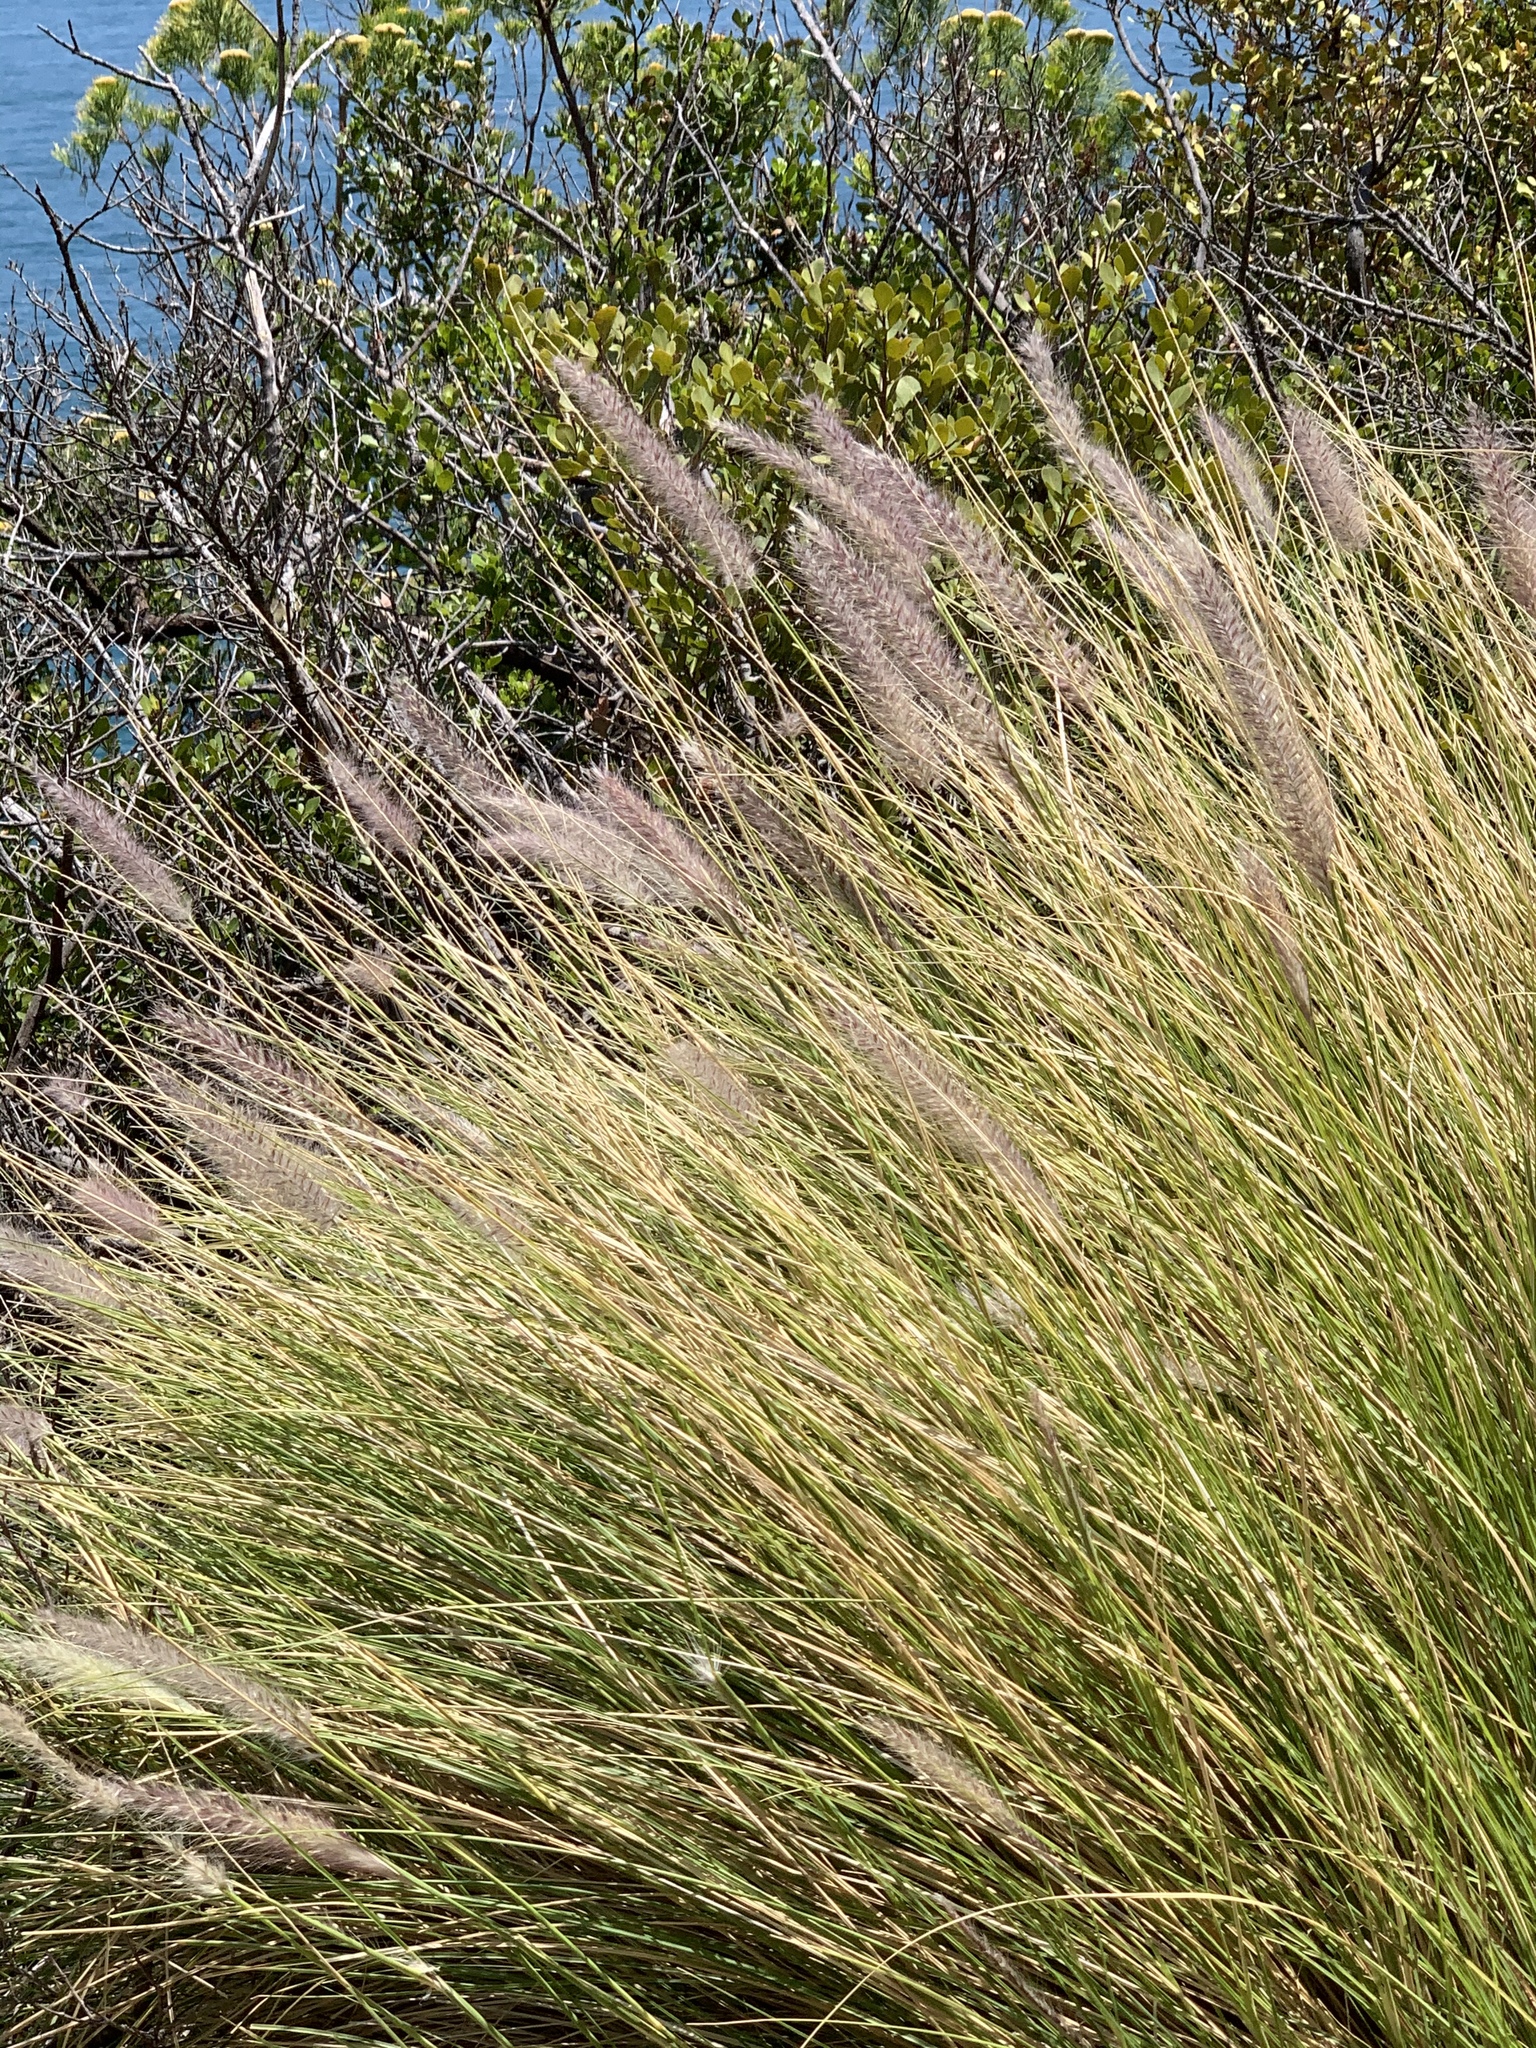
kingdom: Plantae
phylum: Tracheophyta
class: Liliopsida
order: Poales
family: Poaceae
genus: Cenchrus
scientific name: Cenchrus setaceus
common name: Crimson fountaingrass
